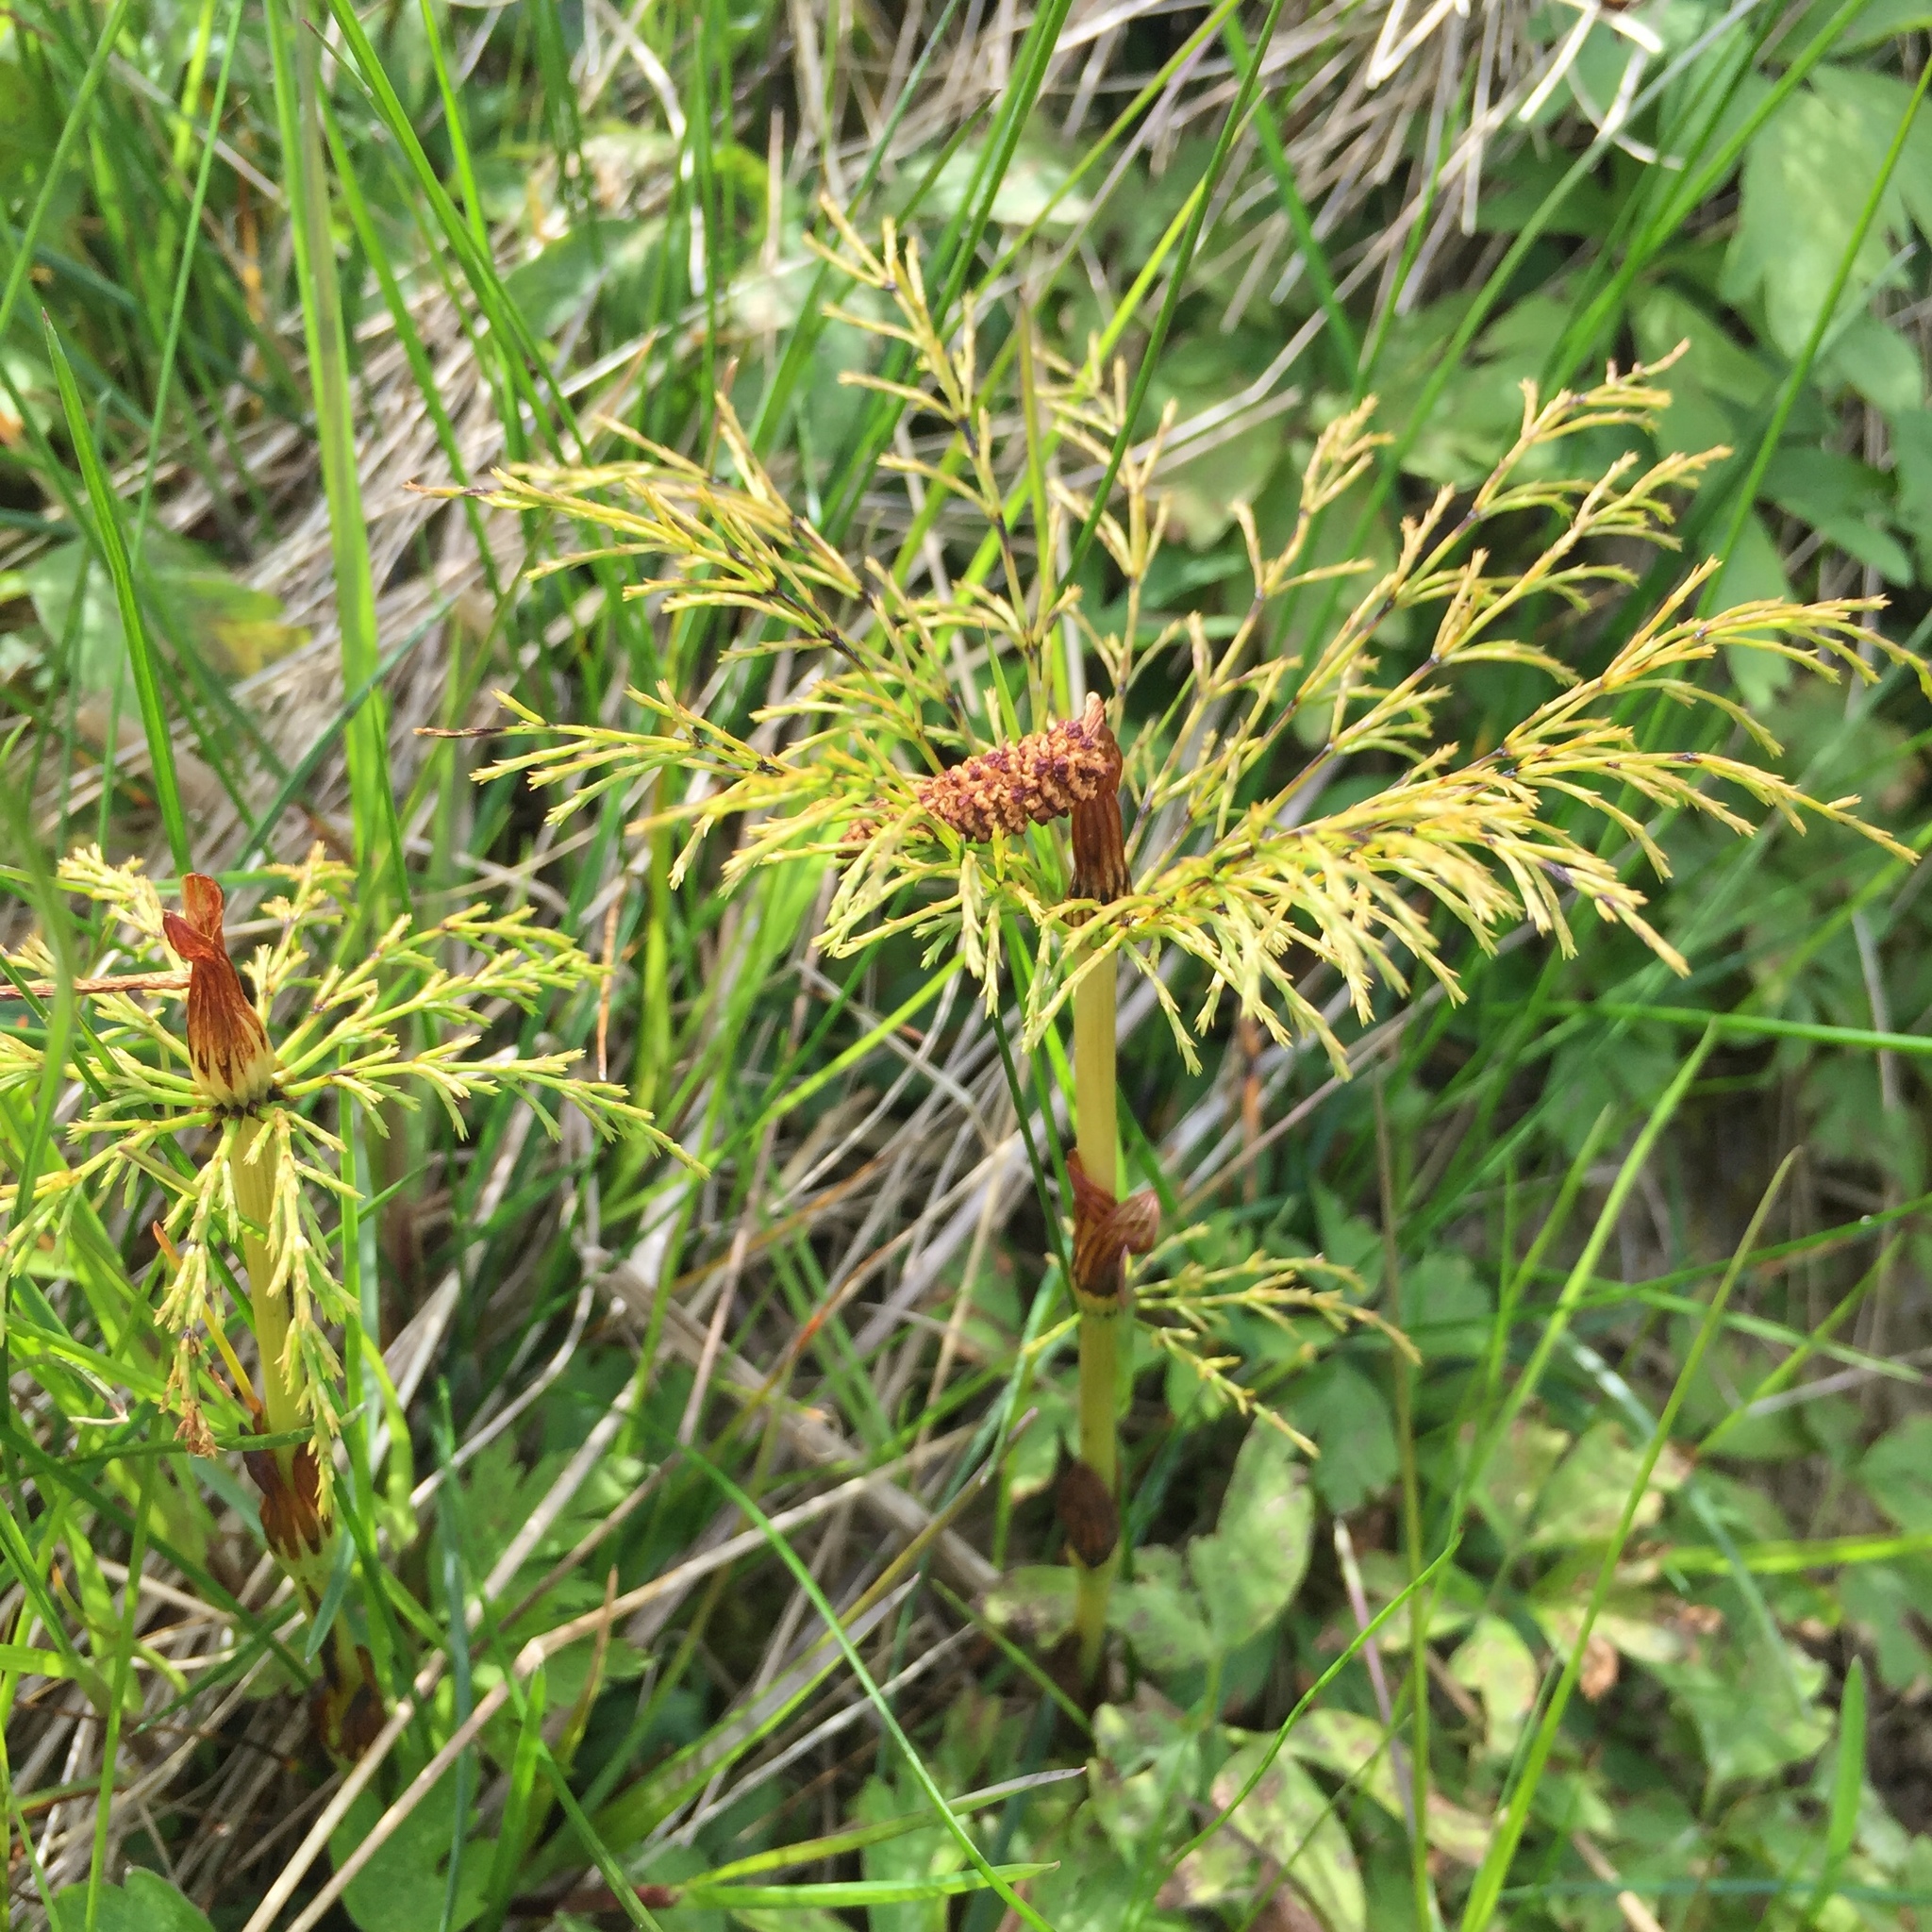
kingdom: Plantae
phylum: Tracheophyta
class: Polypodiopsida
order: Equisetales
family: Equisetaceae
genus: Equisetum
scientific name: Equisetum sylvaticum
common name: Wood horsetail
